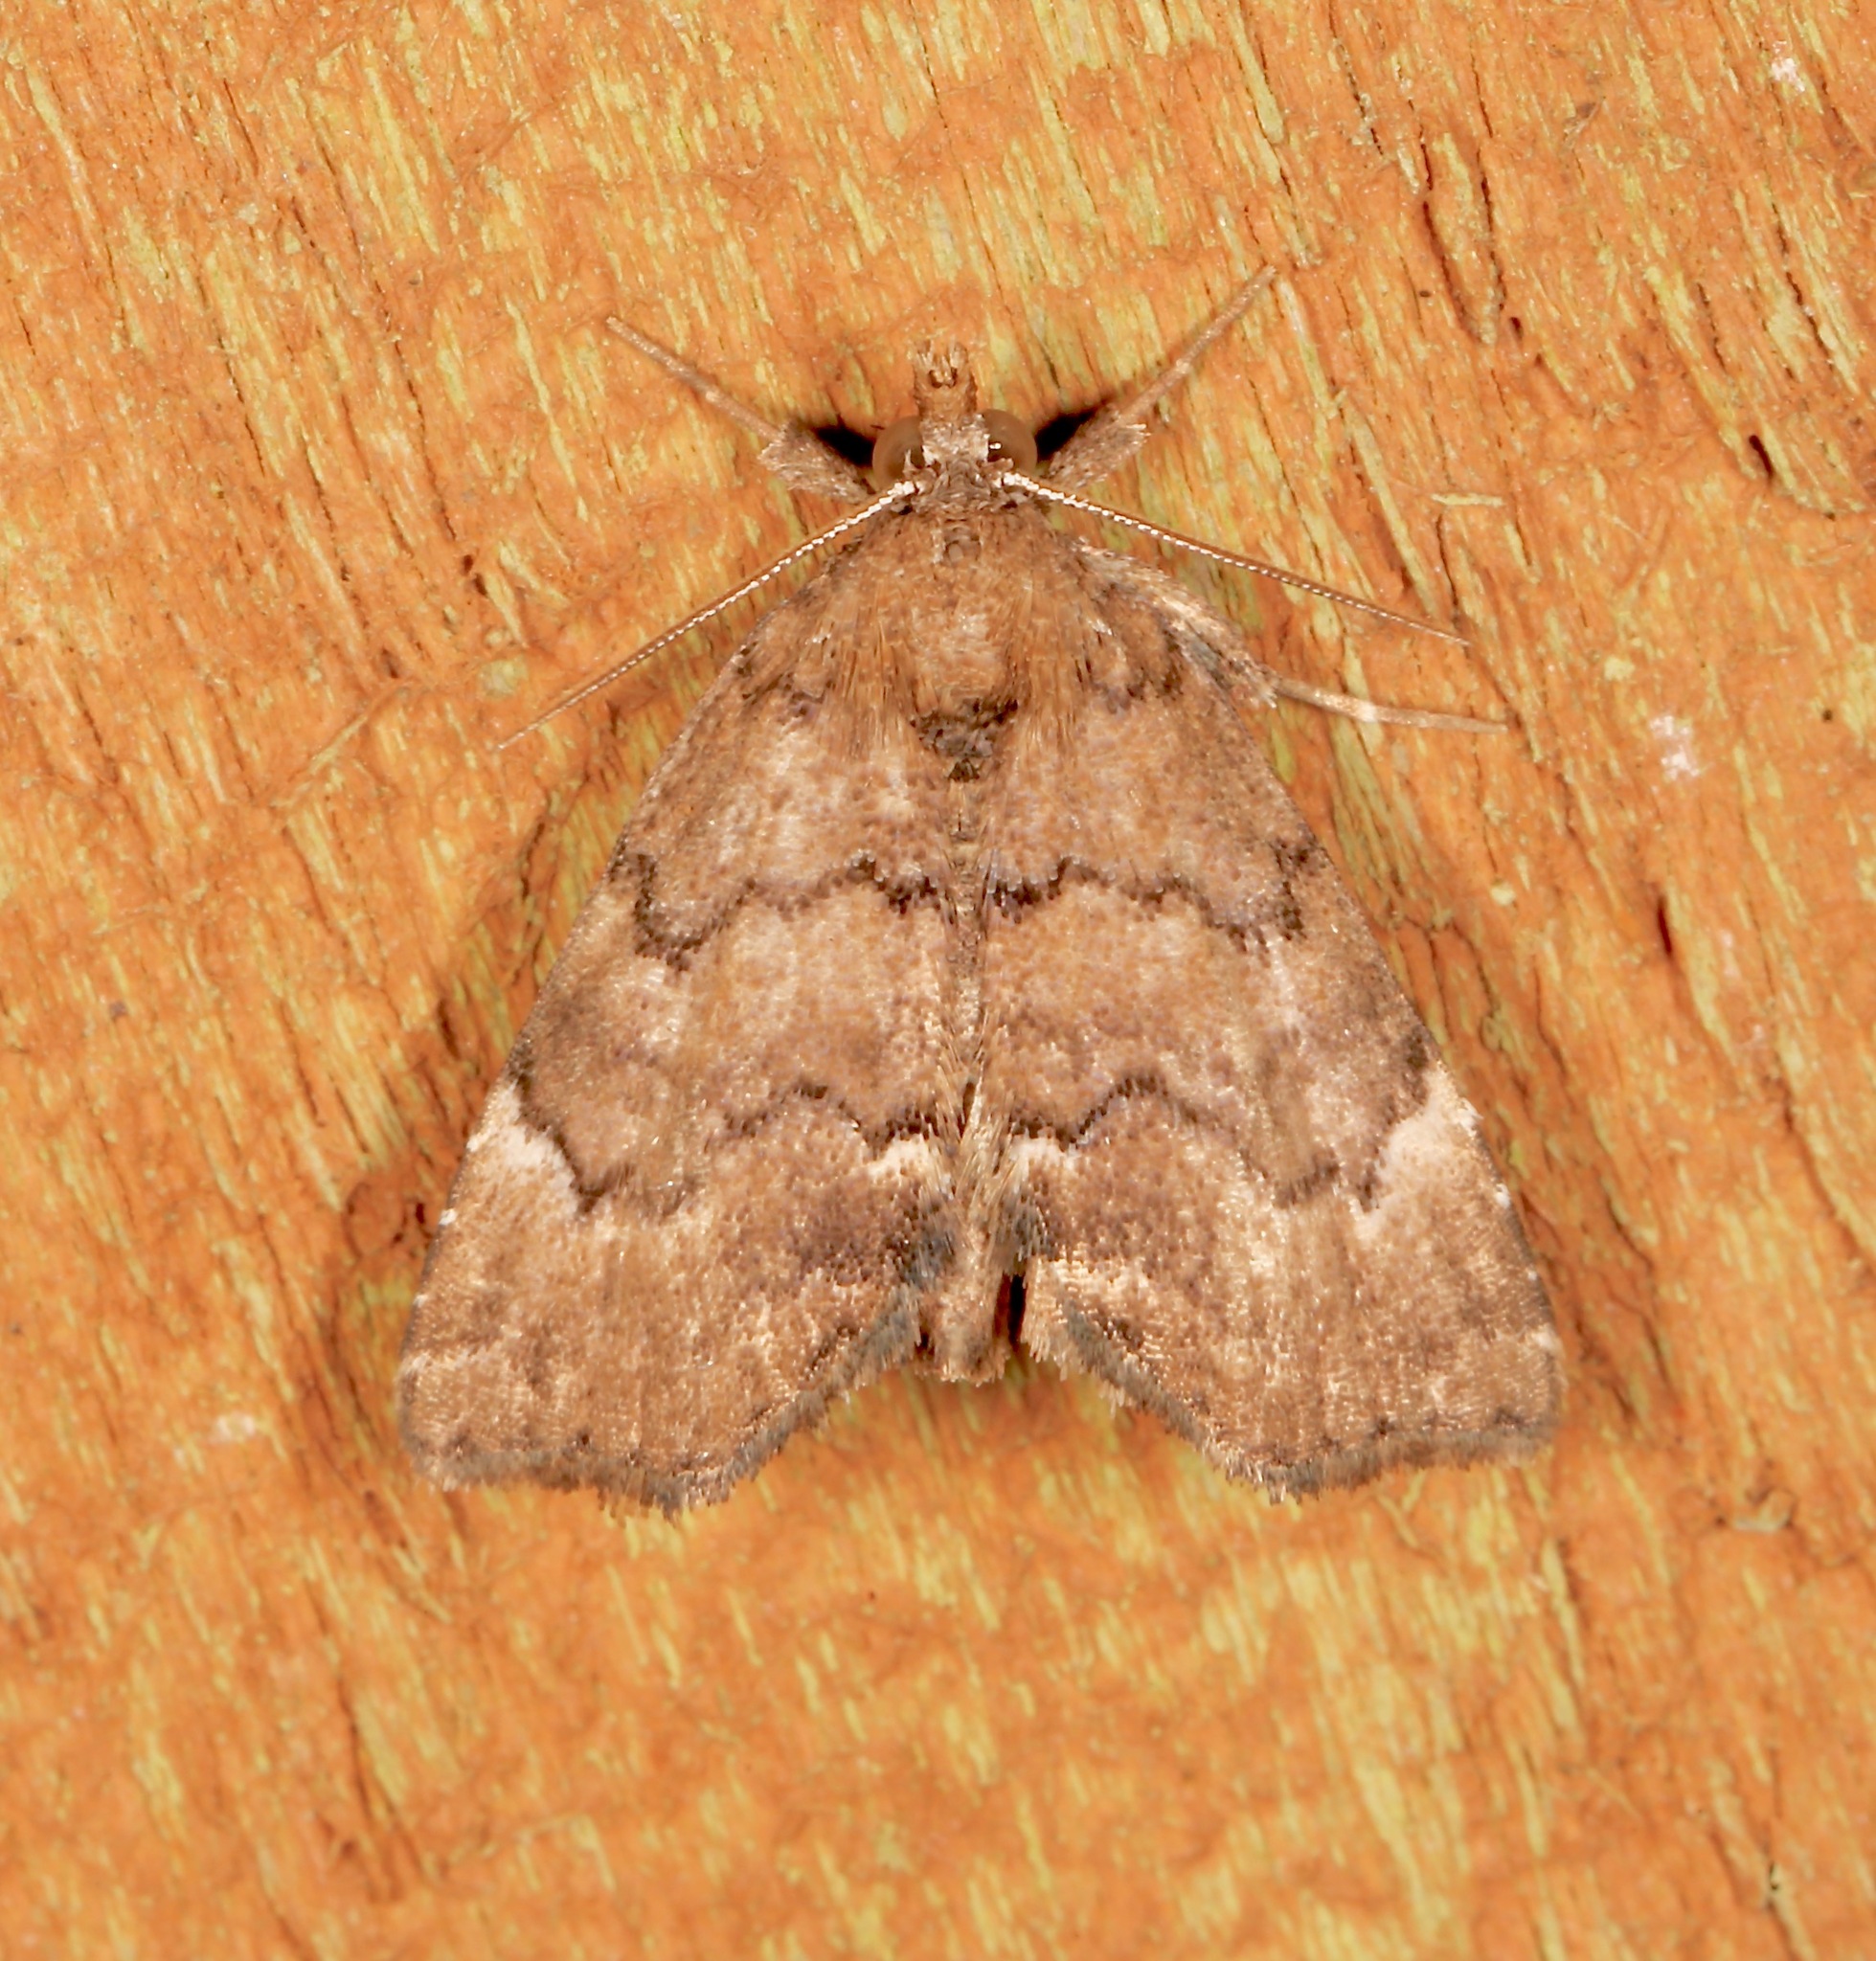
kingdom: Animalia
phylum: Arthropoda
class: Insecta
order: Lepidoptera
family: Erebidae
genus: Cutina
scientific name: Cutina aluticolor
